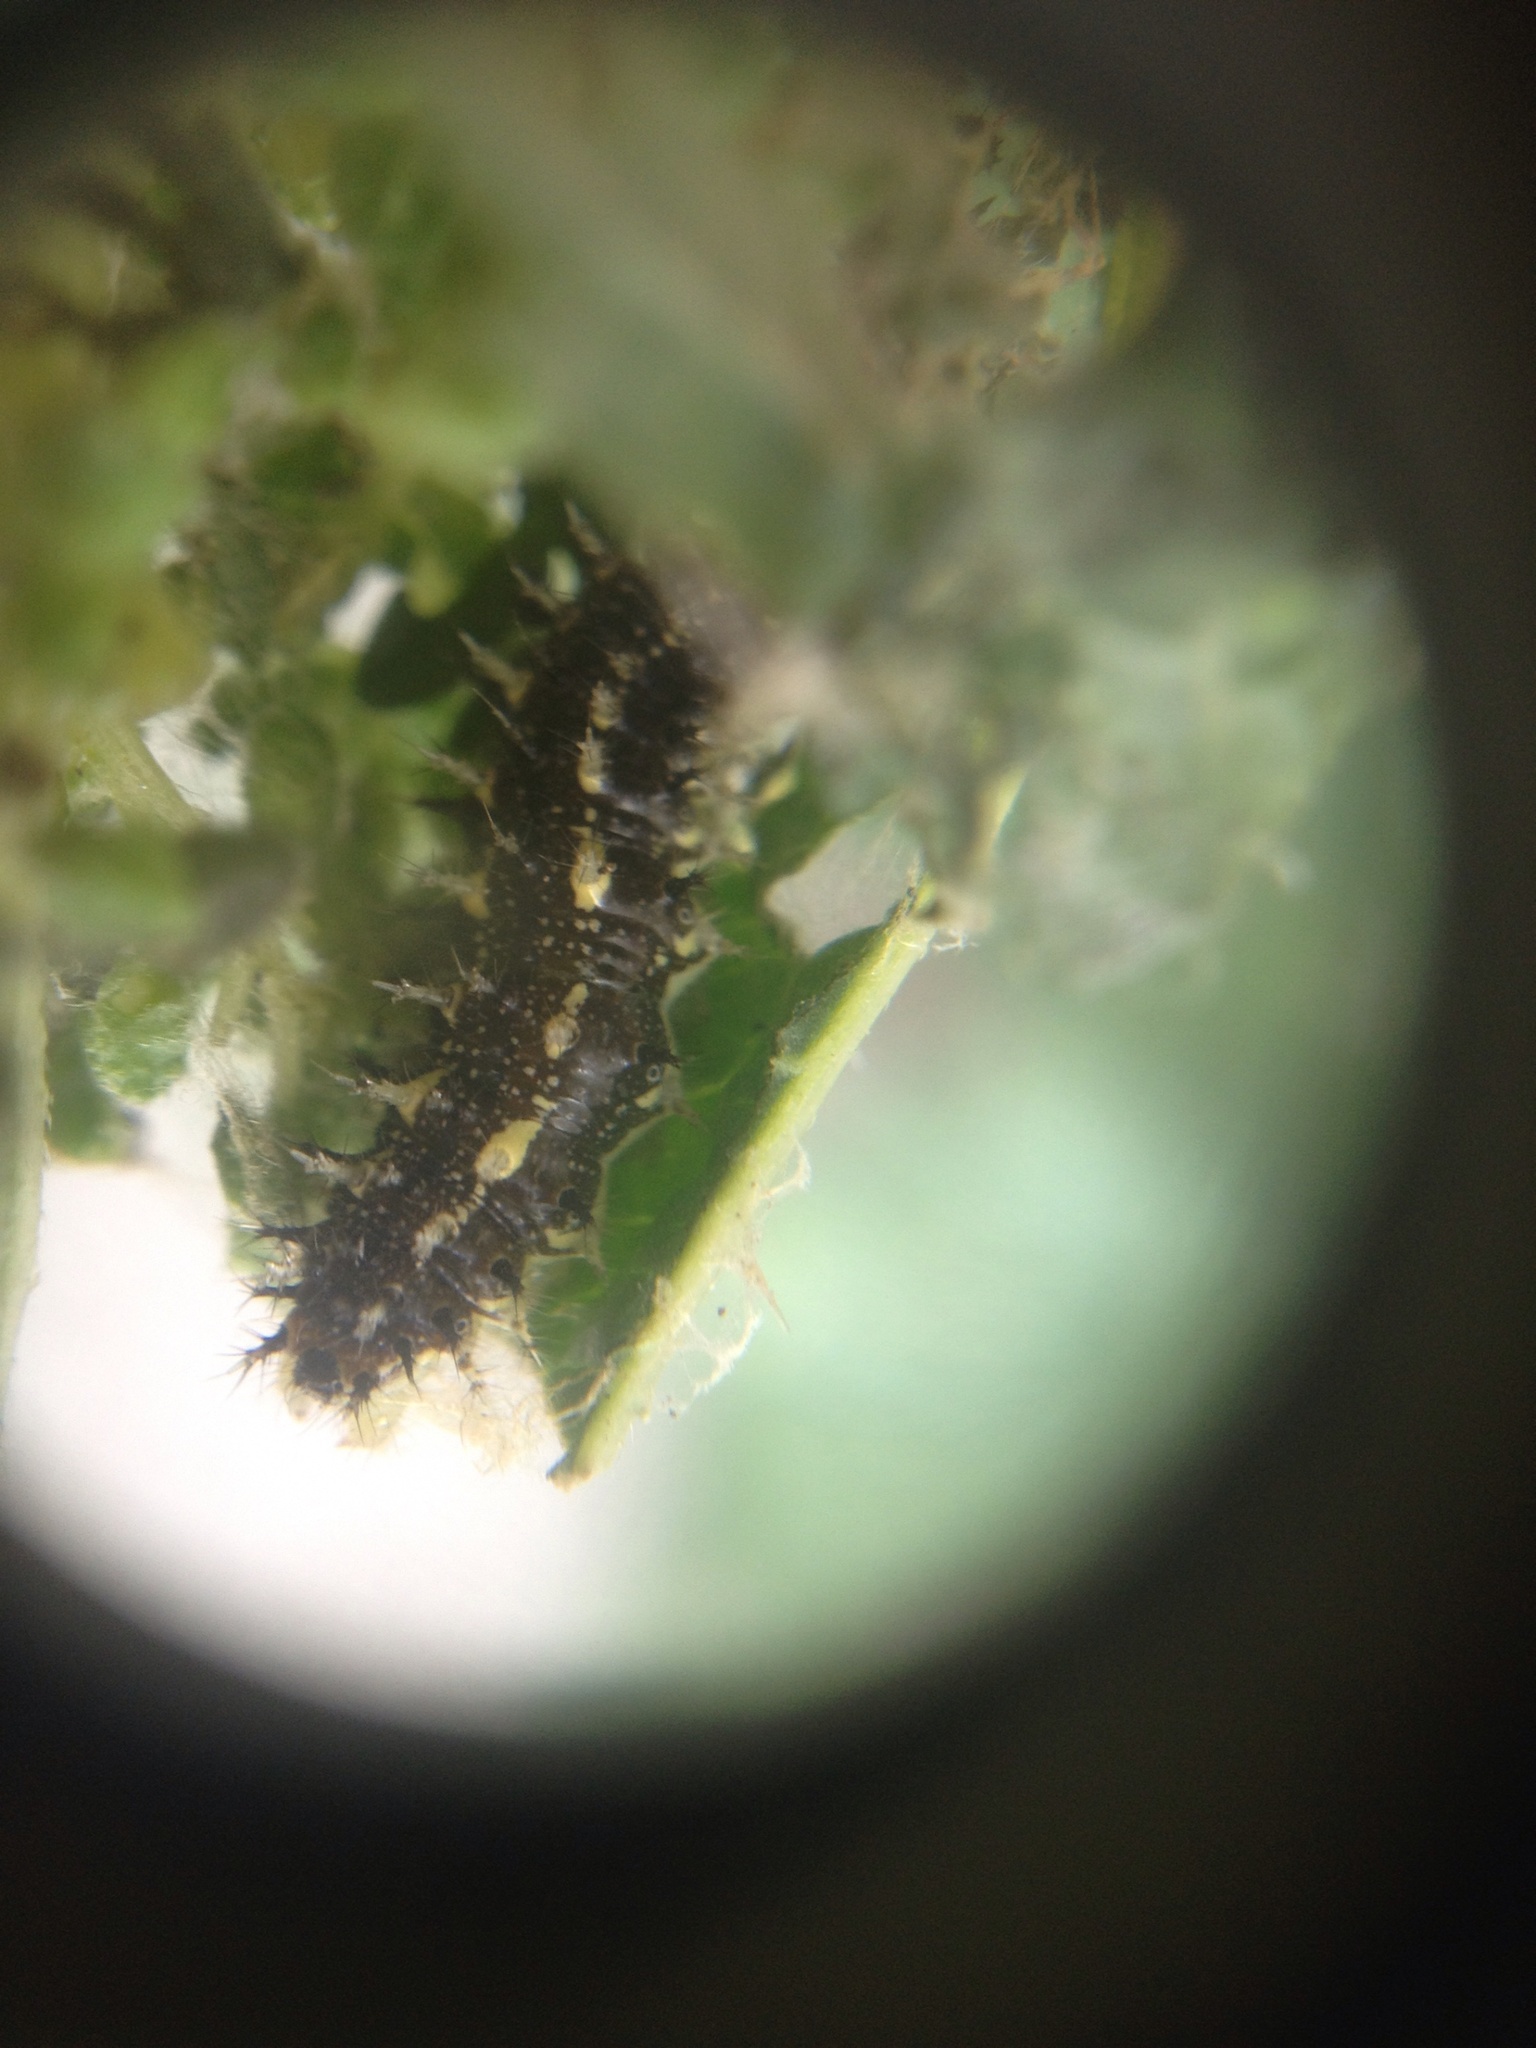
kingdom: Animalia
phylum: Arthropoda
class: Insecta
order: Lepidoptera
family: Nymphalidae
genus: Vanessa
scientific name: Vanessa itea
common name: Yellow admiral
